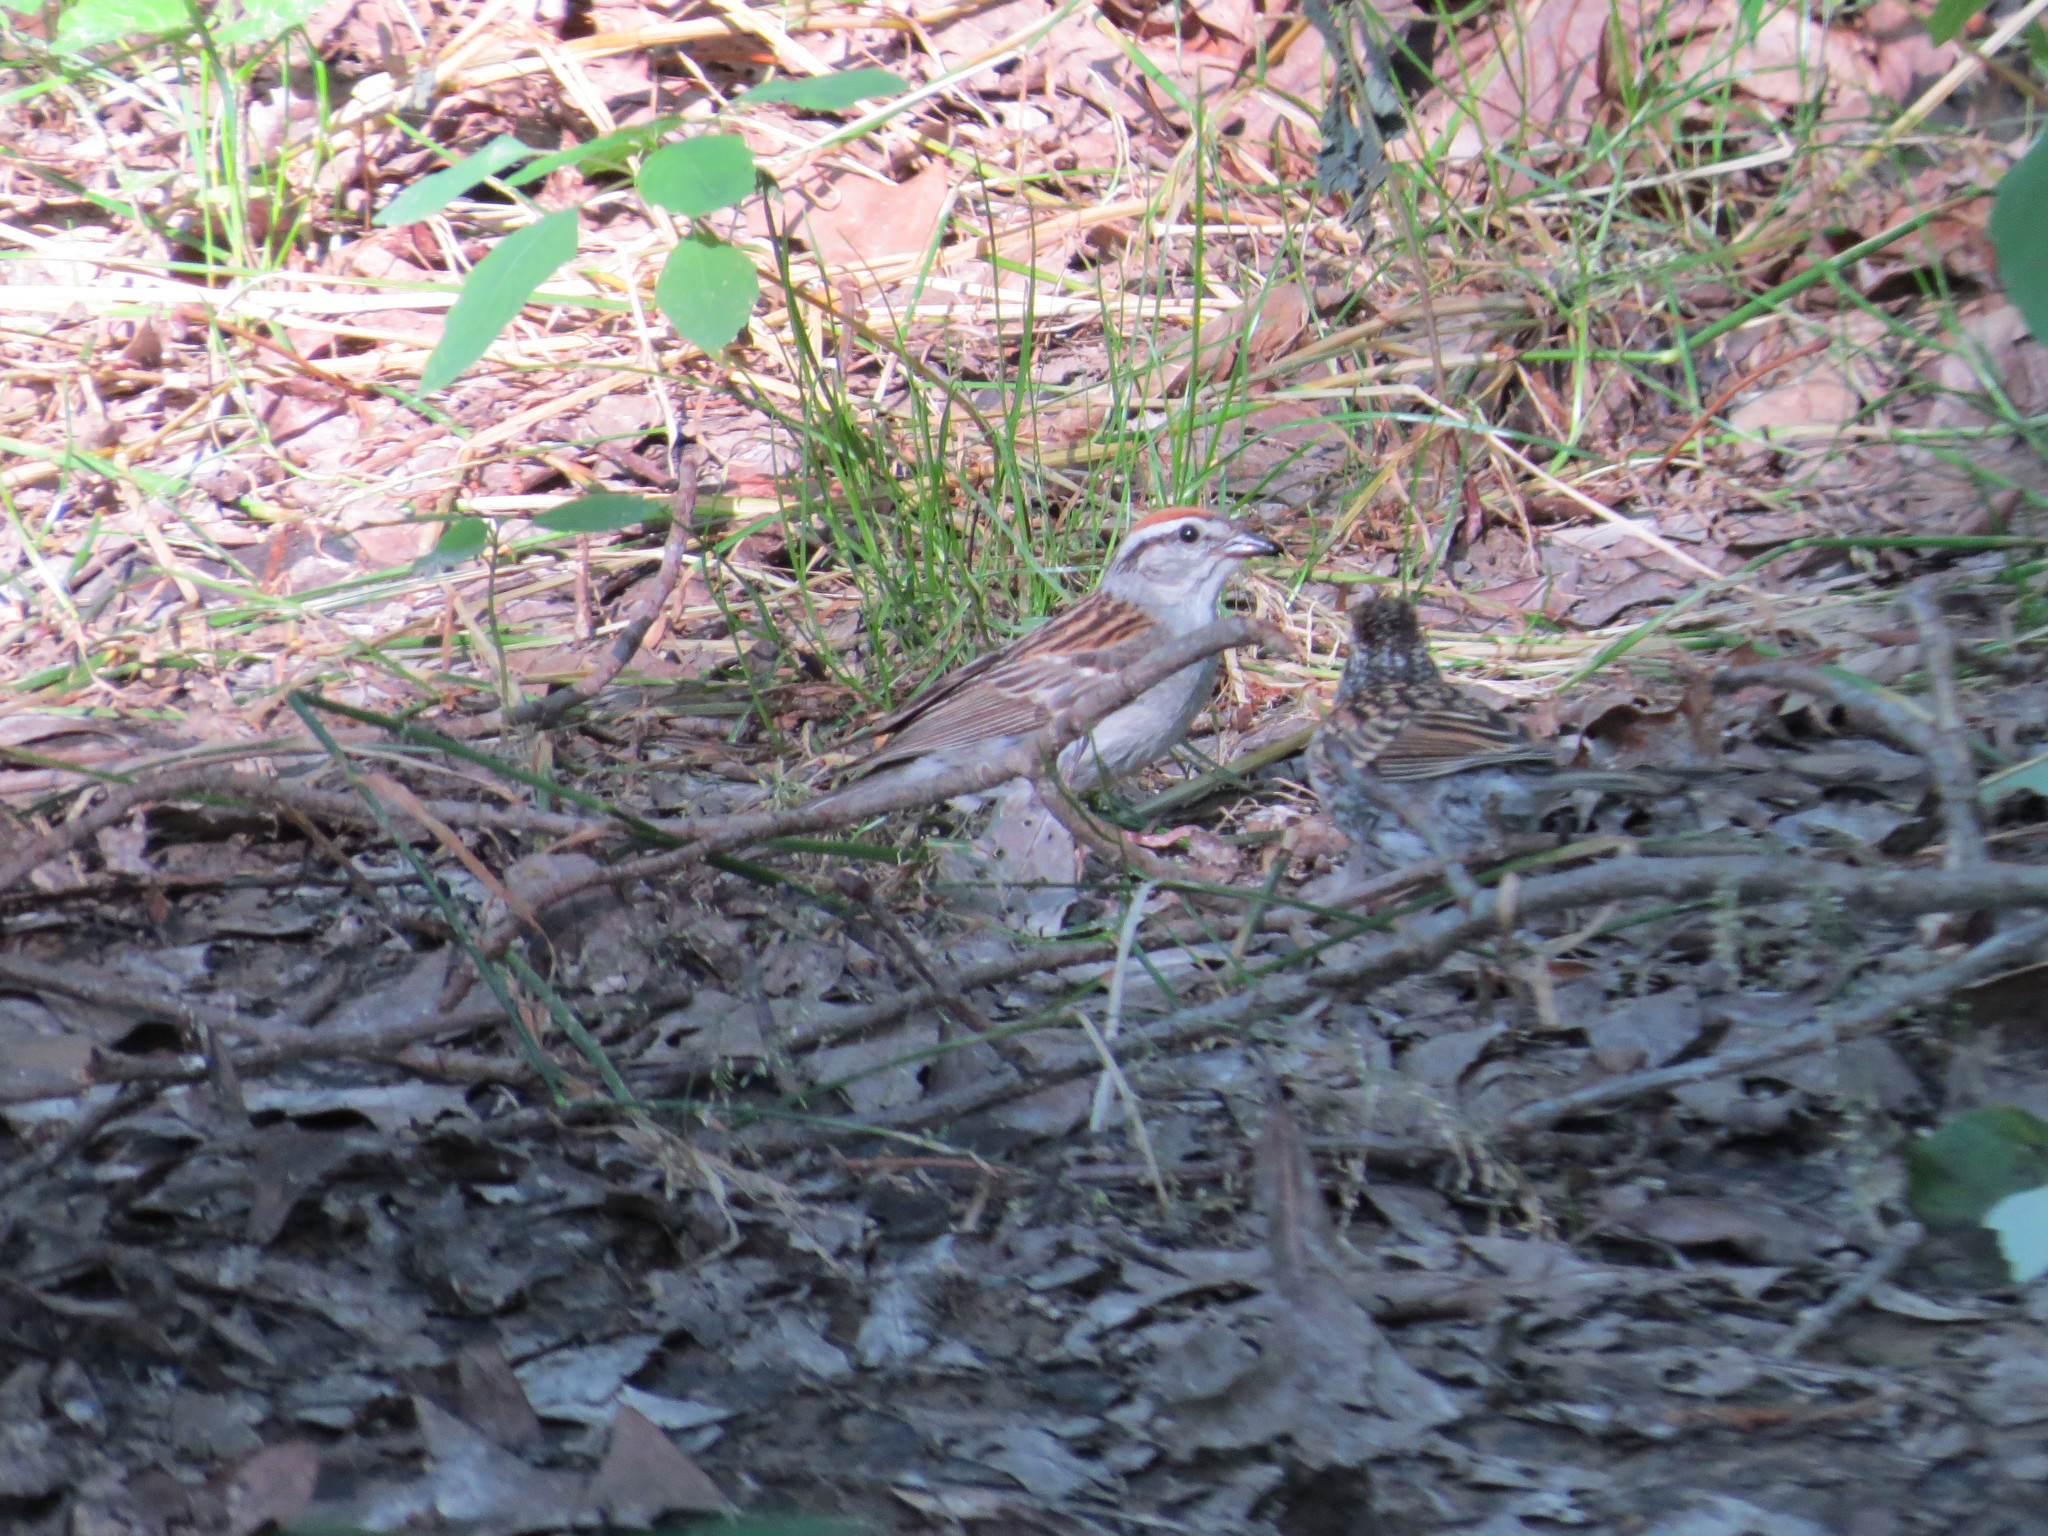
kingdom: Animalia
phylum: Chordata
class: Aves
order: Passeriformes
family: Passerellidae
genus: Spizella
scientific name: Spizella passerina
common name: Chipping sparrow
